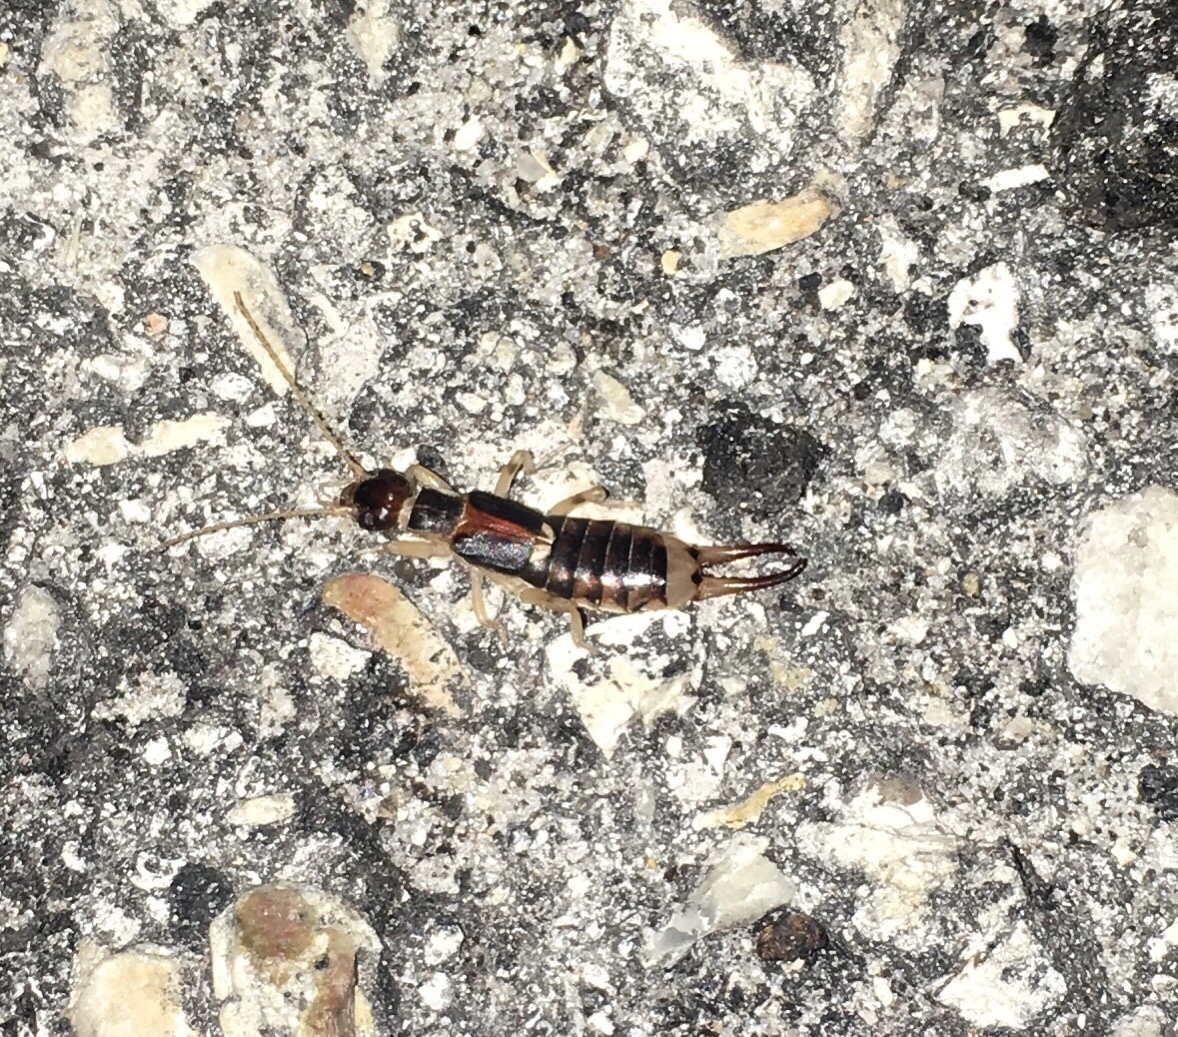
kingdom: Animalia
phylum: Arthropoda
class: Insecta
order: Dermaptera
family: Labiduridae
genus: Labidura
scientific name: Labidura riparia
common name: Striped earwig
